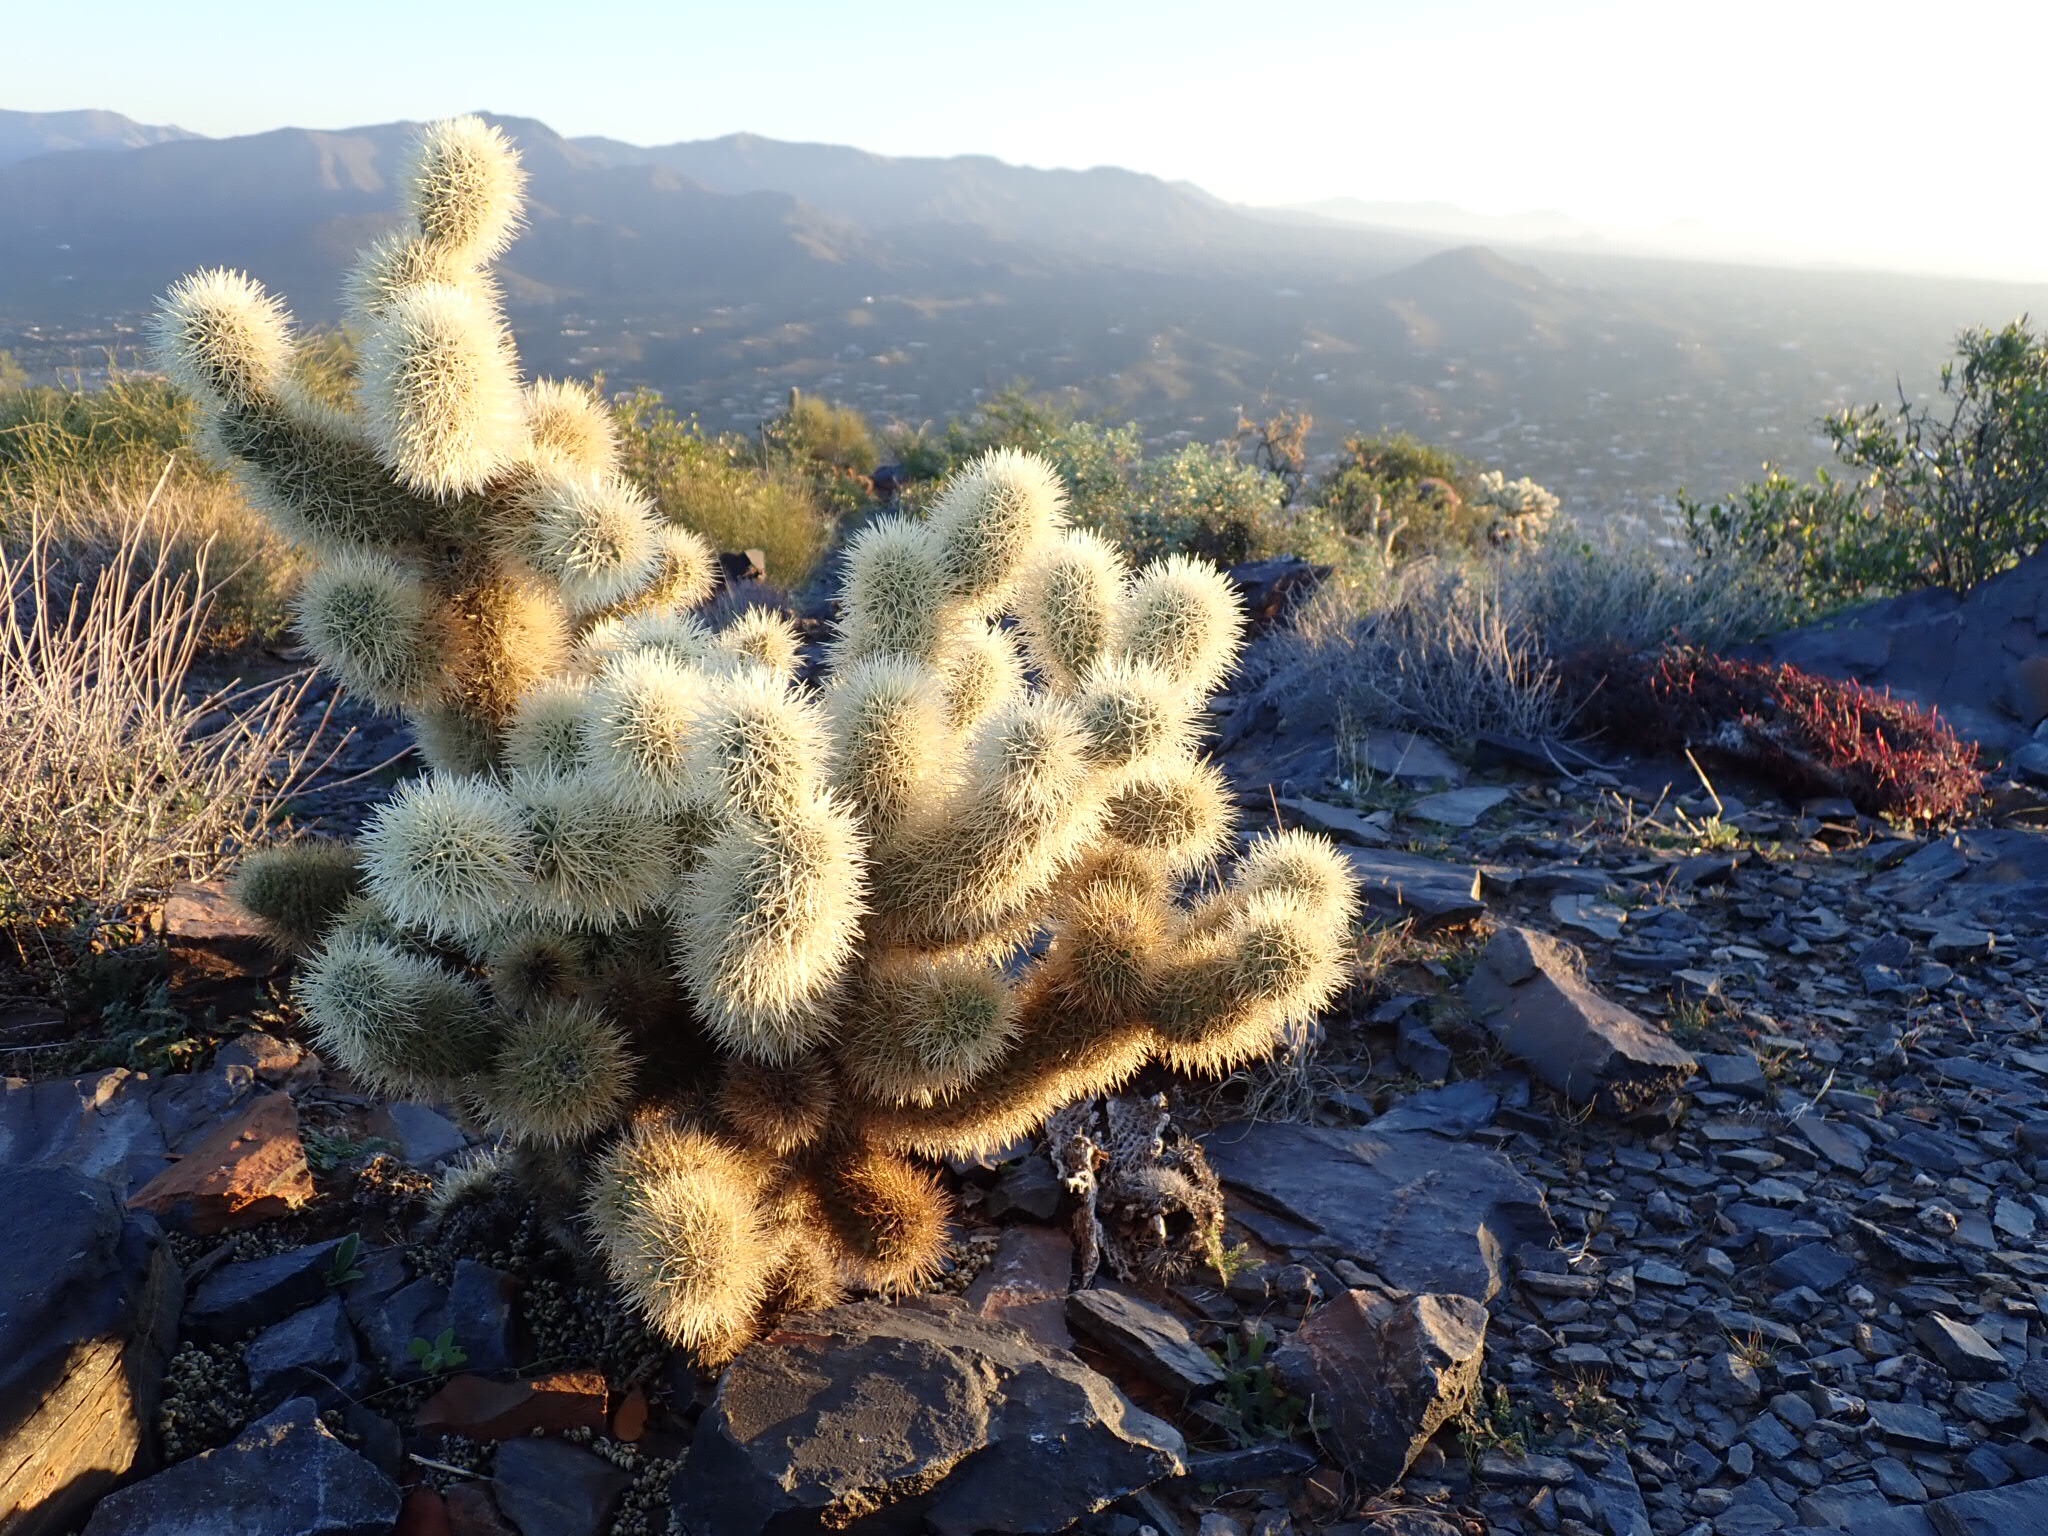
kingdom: Plantae
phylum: Tracheophyta
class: Magnoliopsida
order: Caryophyllales
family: Cactaceae
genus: Cylindropuntia
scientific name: Cylindropuntia fosbergii
